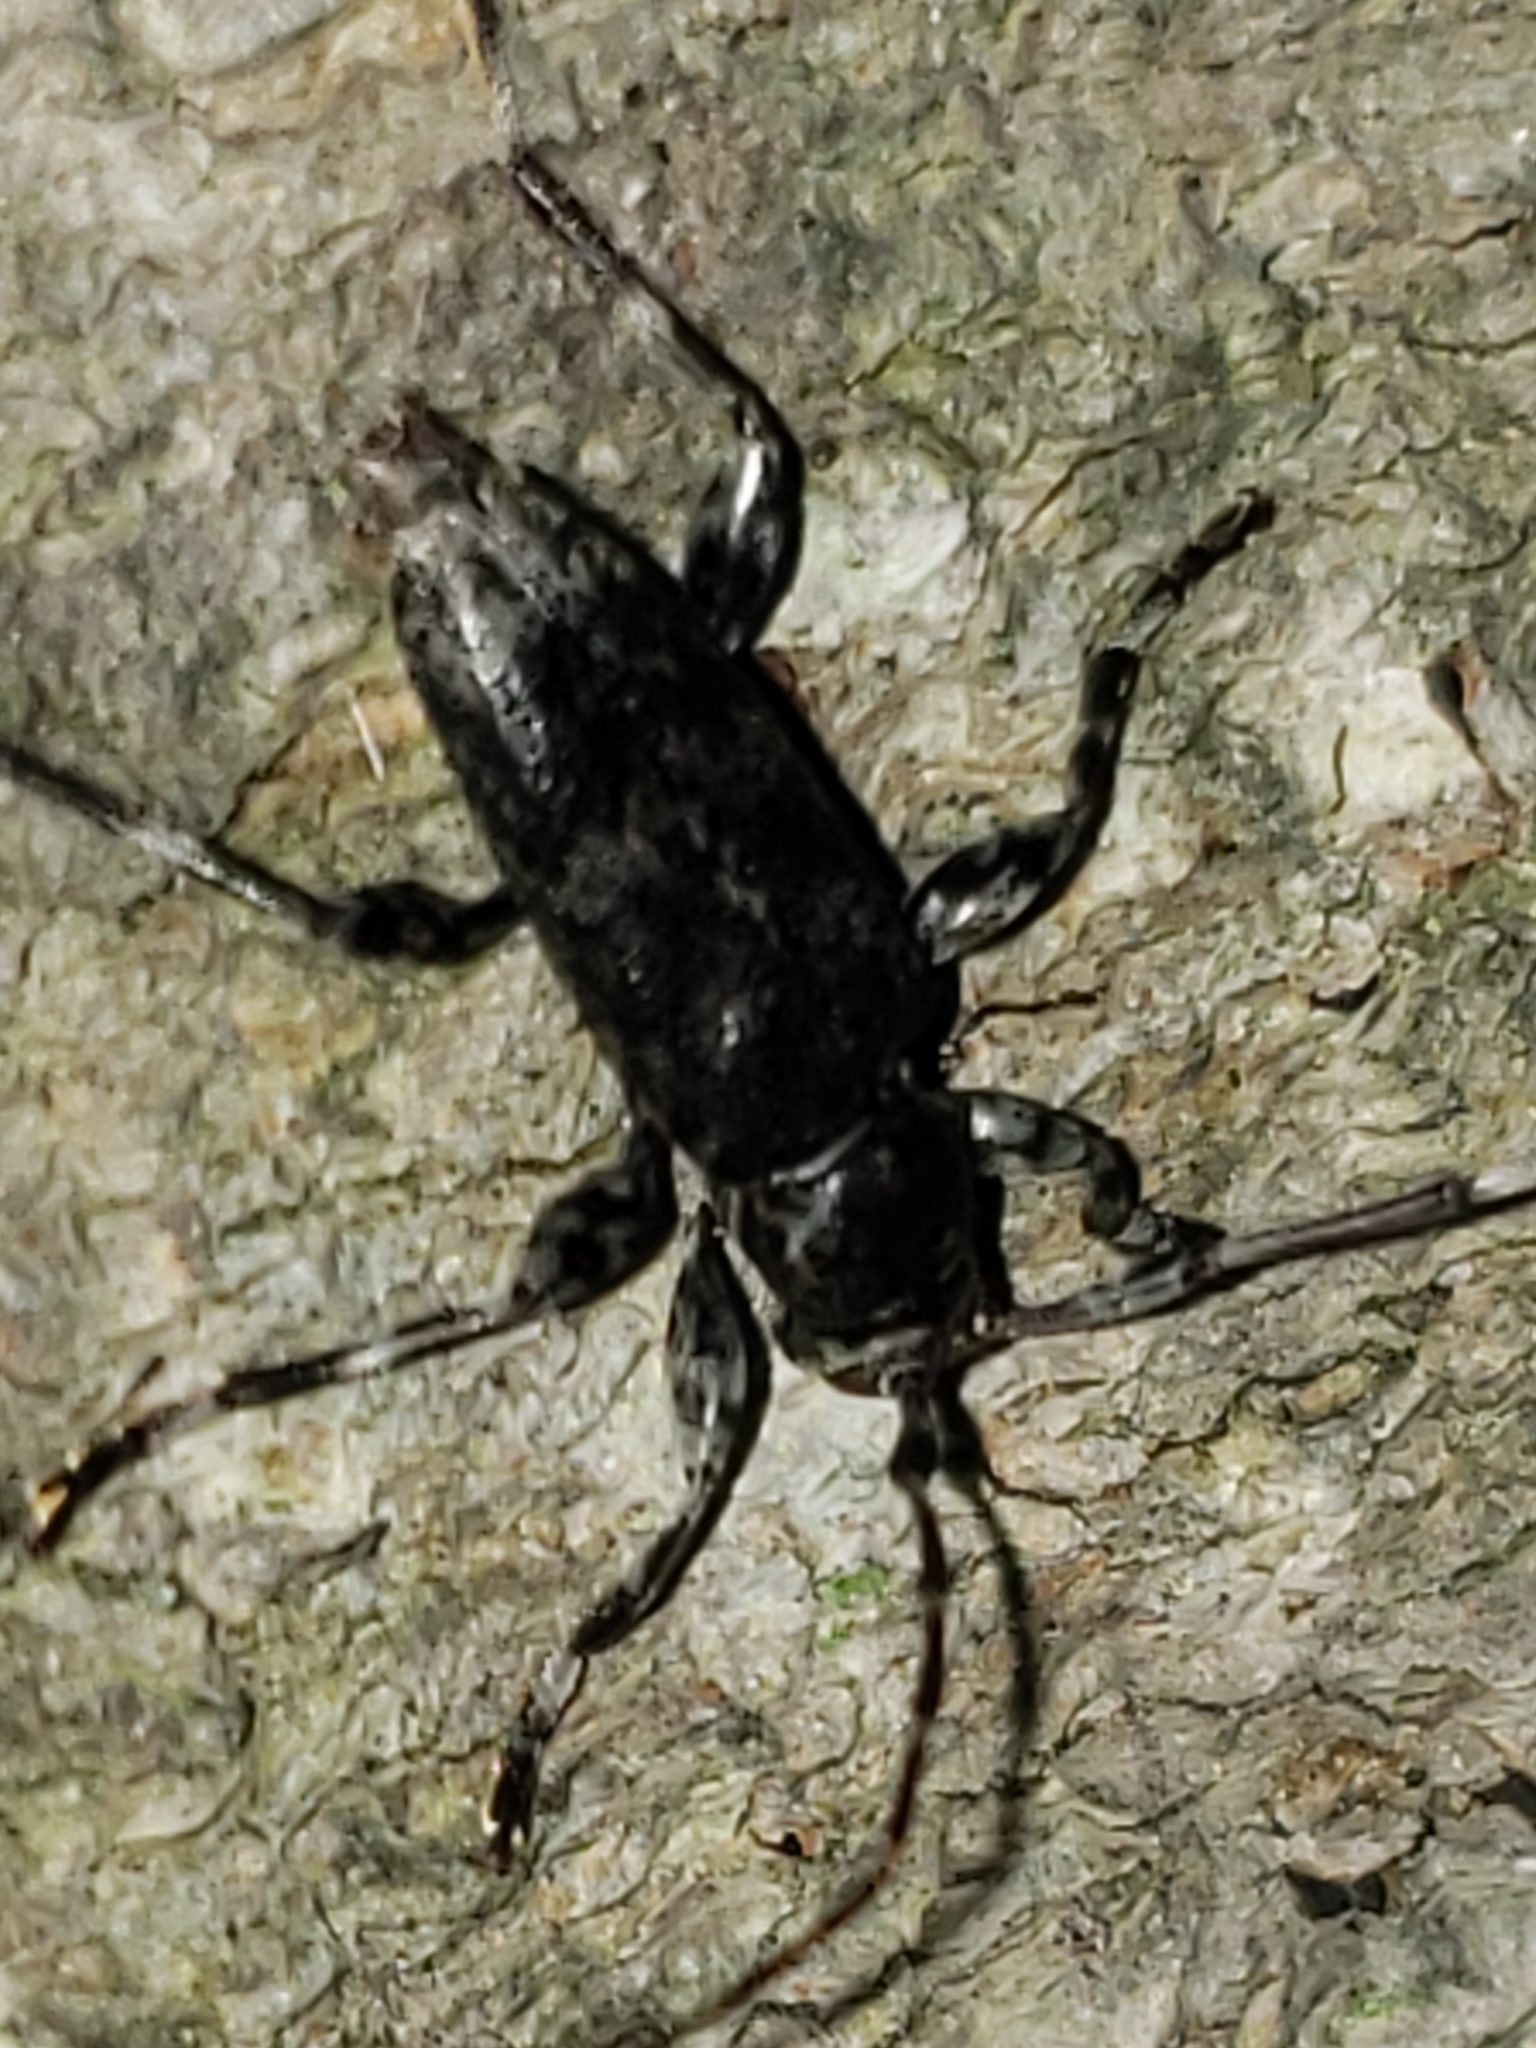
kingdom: Animalia
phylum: Arthropoda
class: Insecta
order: Coleoptera
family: Cerambycidae
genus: Graphisurus
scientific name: Graphisurus fasciatus
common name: Banded graphisurus
